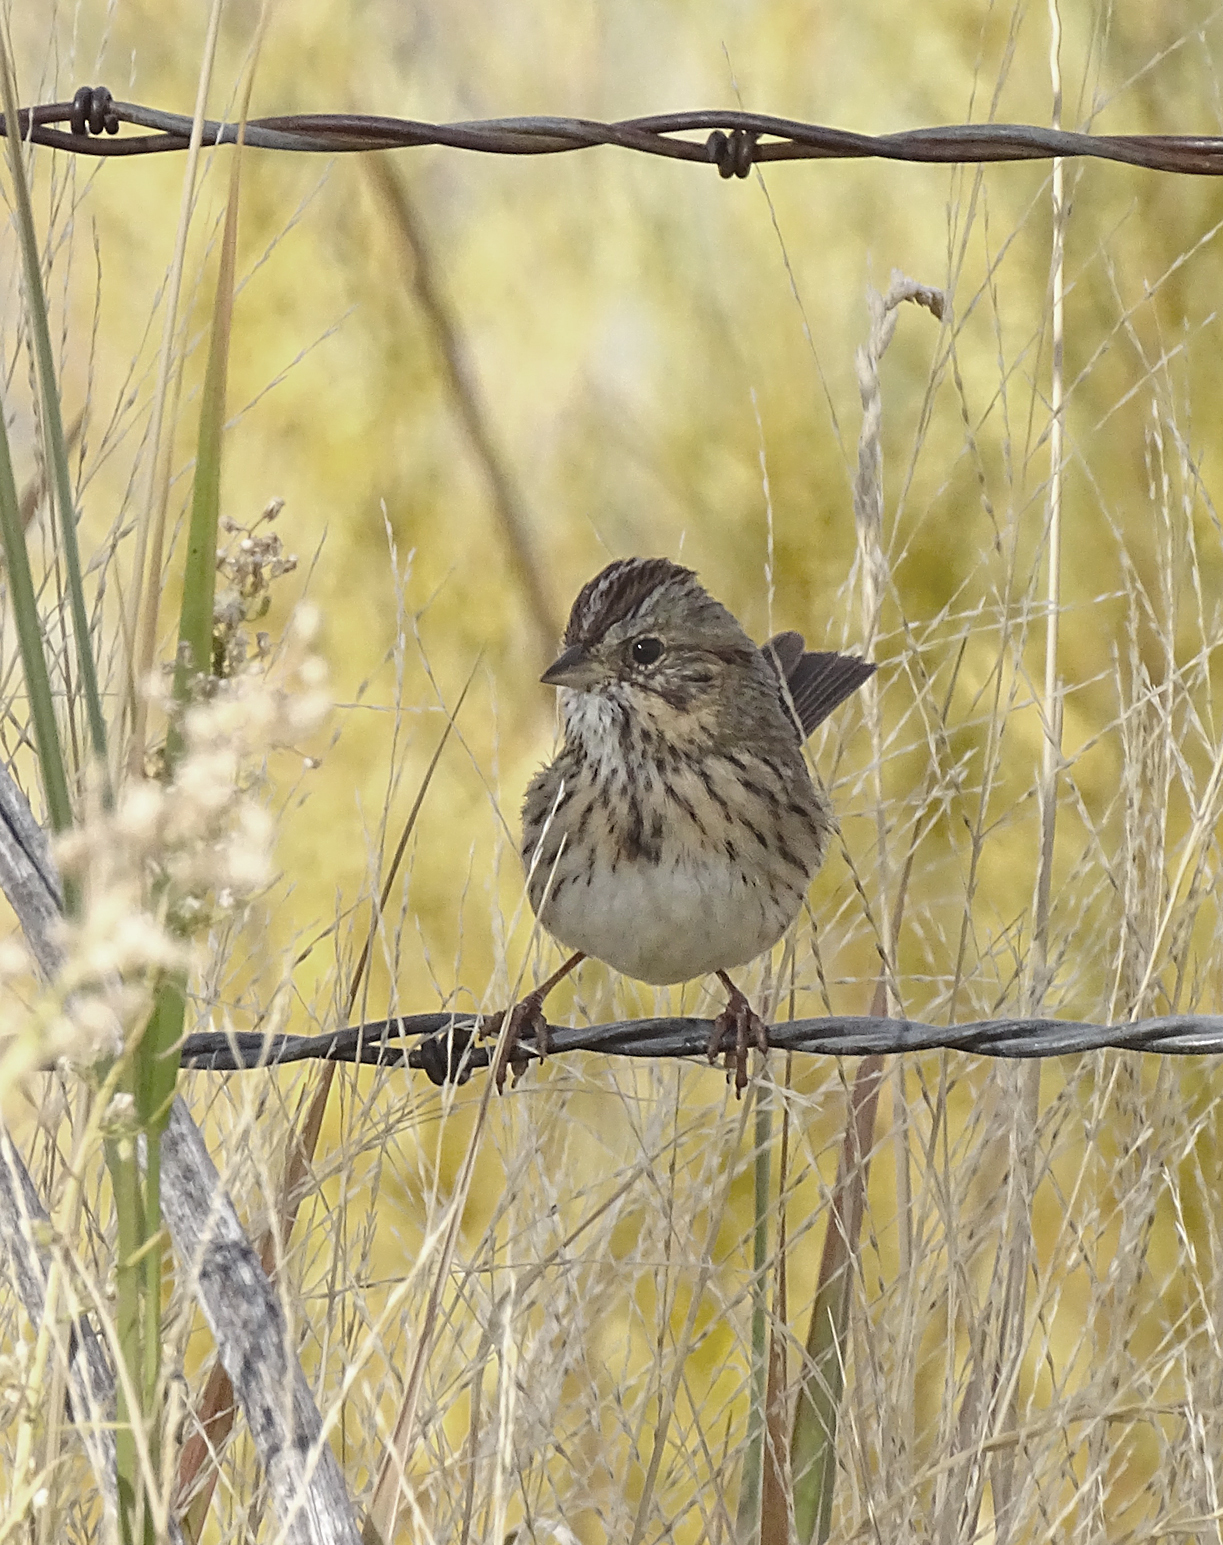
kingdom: Animalia
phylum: Chordata
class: Aves
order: Passeriformes
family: Passerellidae
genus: Melospiza
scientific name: Melospiza lincolnii
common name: Lincoln's sparrow
